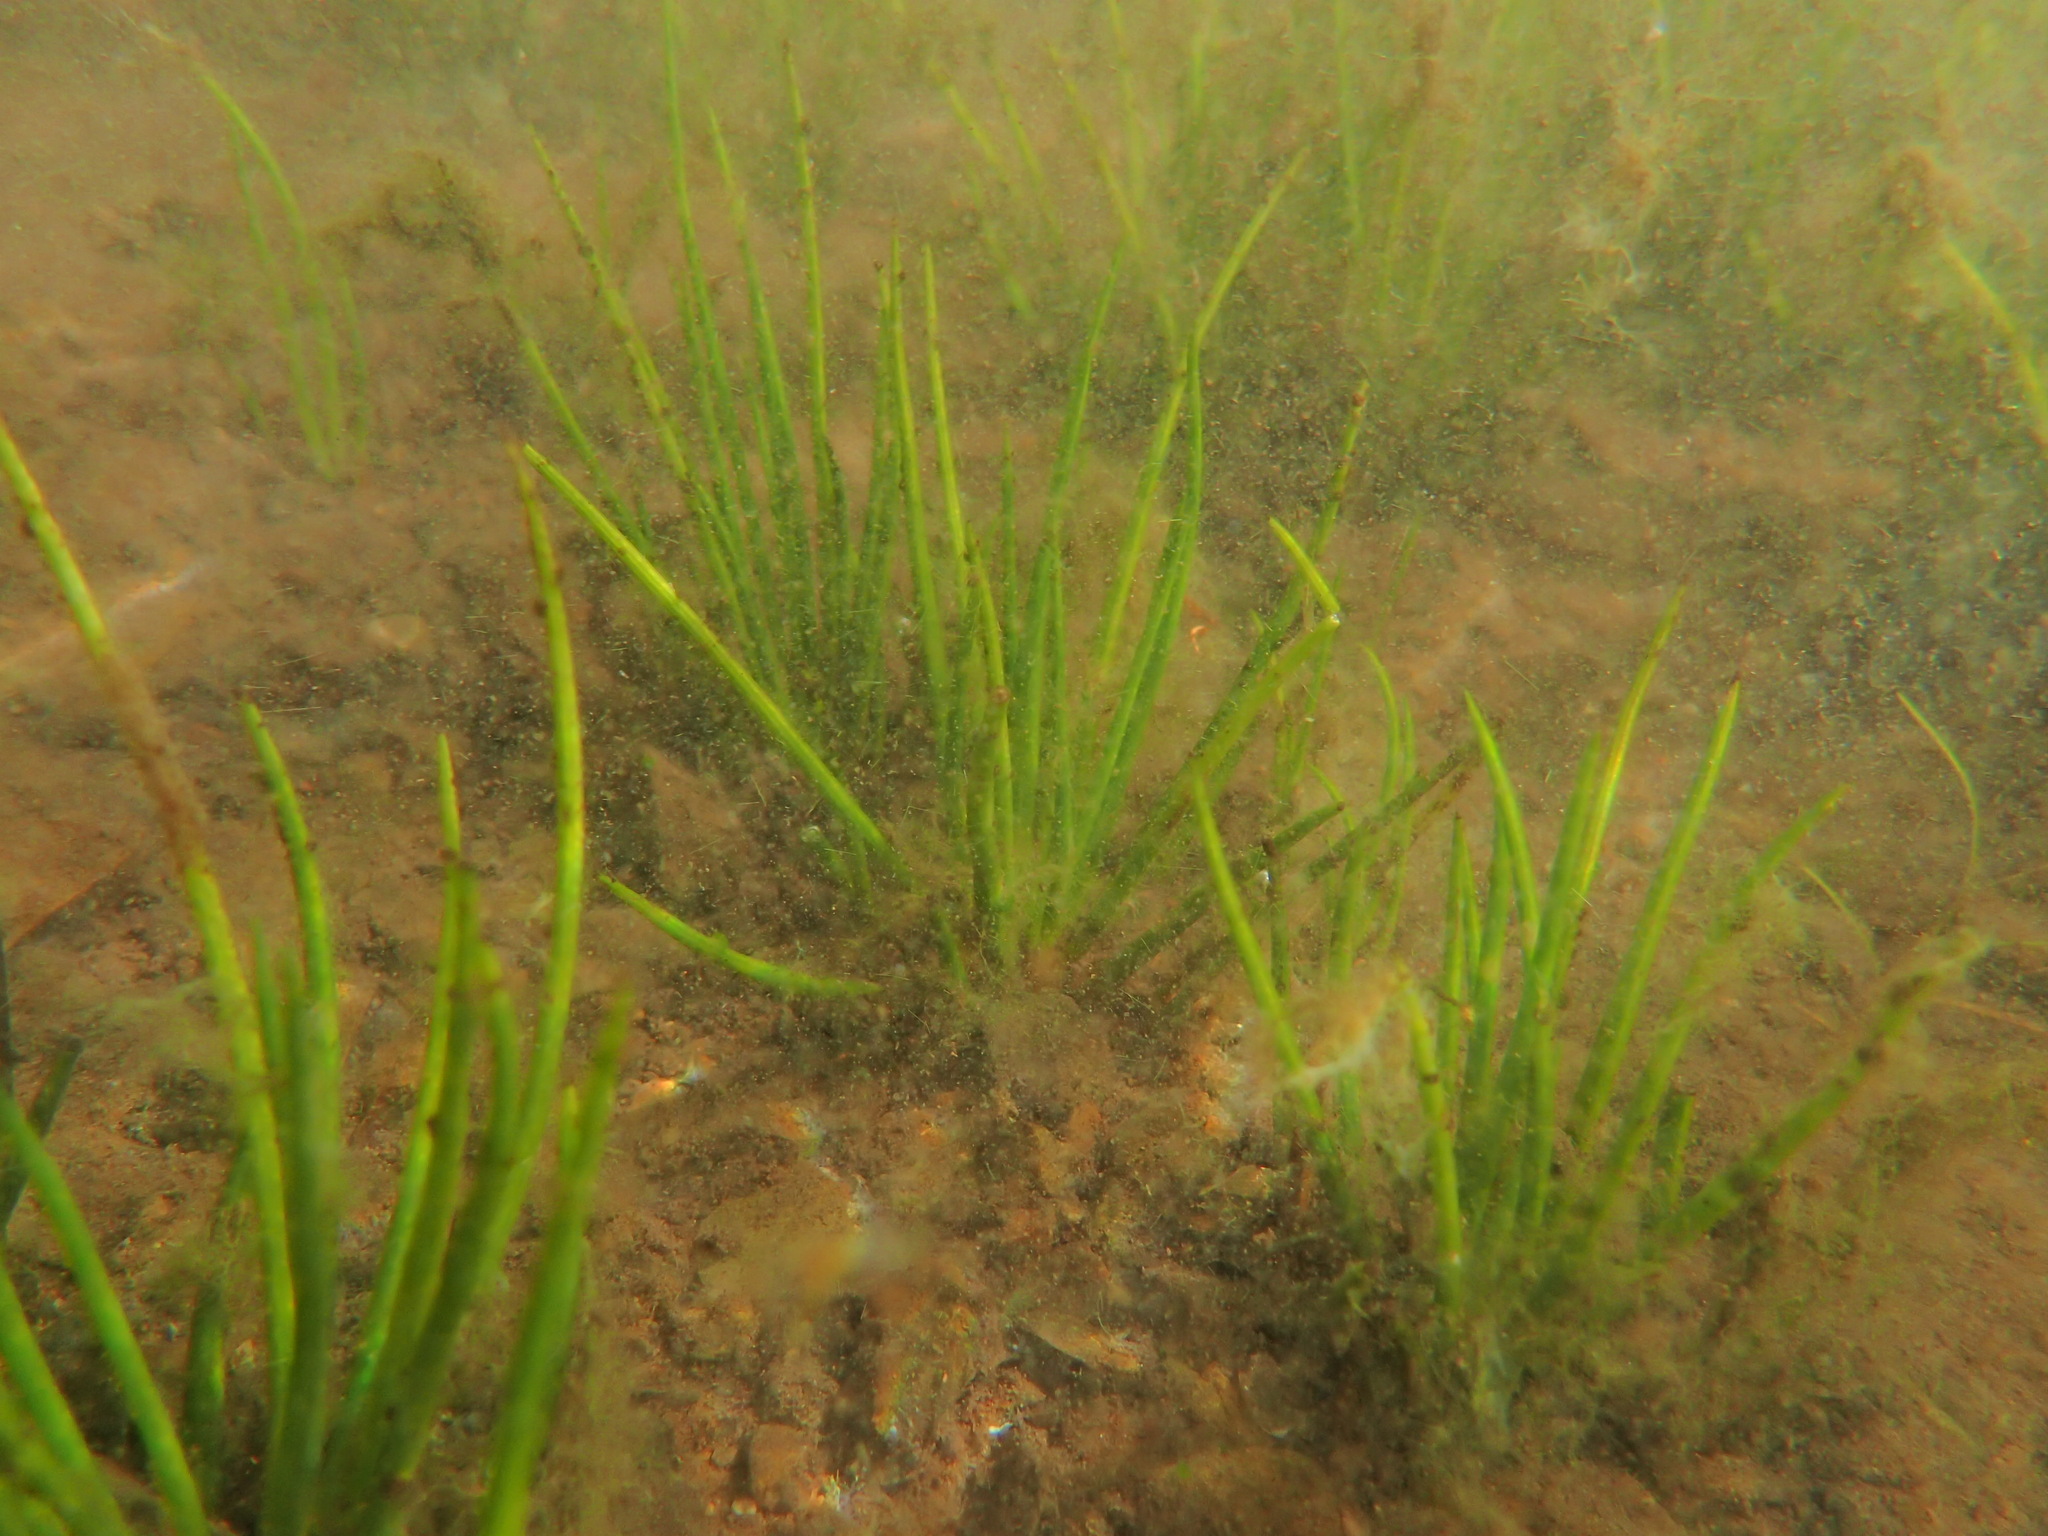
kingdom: Plantae
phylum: Tracheophyta
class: Lycopodiopsida
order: Isoetales
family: Isoetaceae
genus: Isoetes
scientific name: Isoetes occidentalis
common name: Western quillwort
